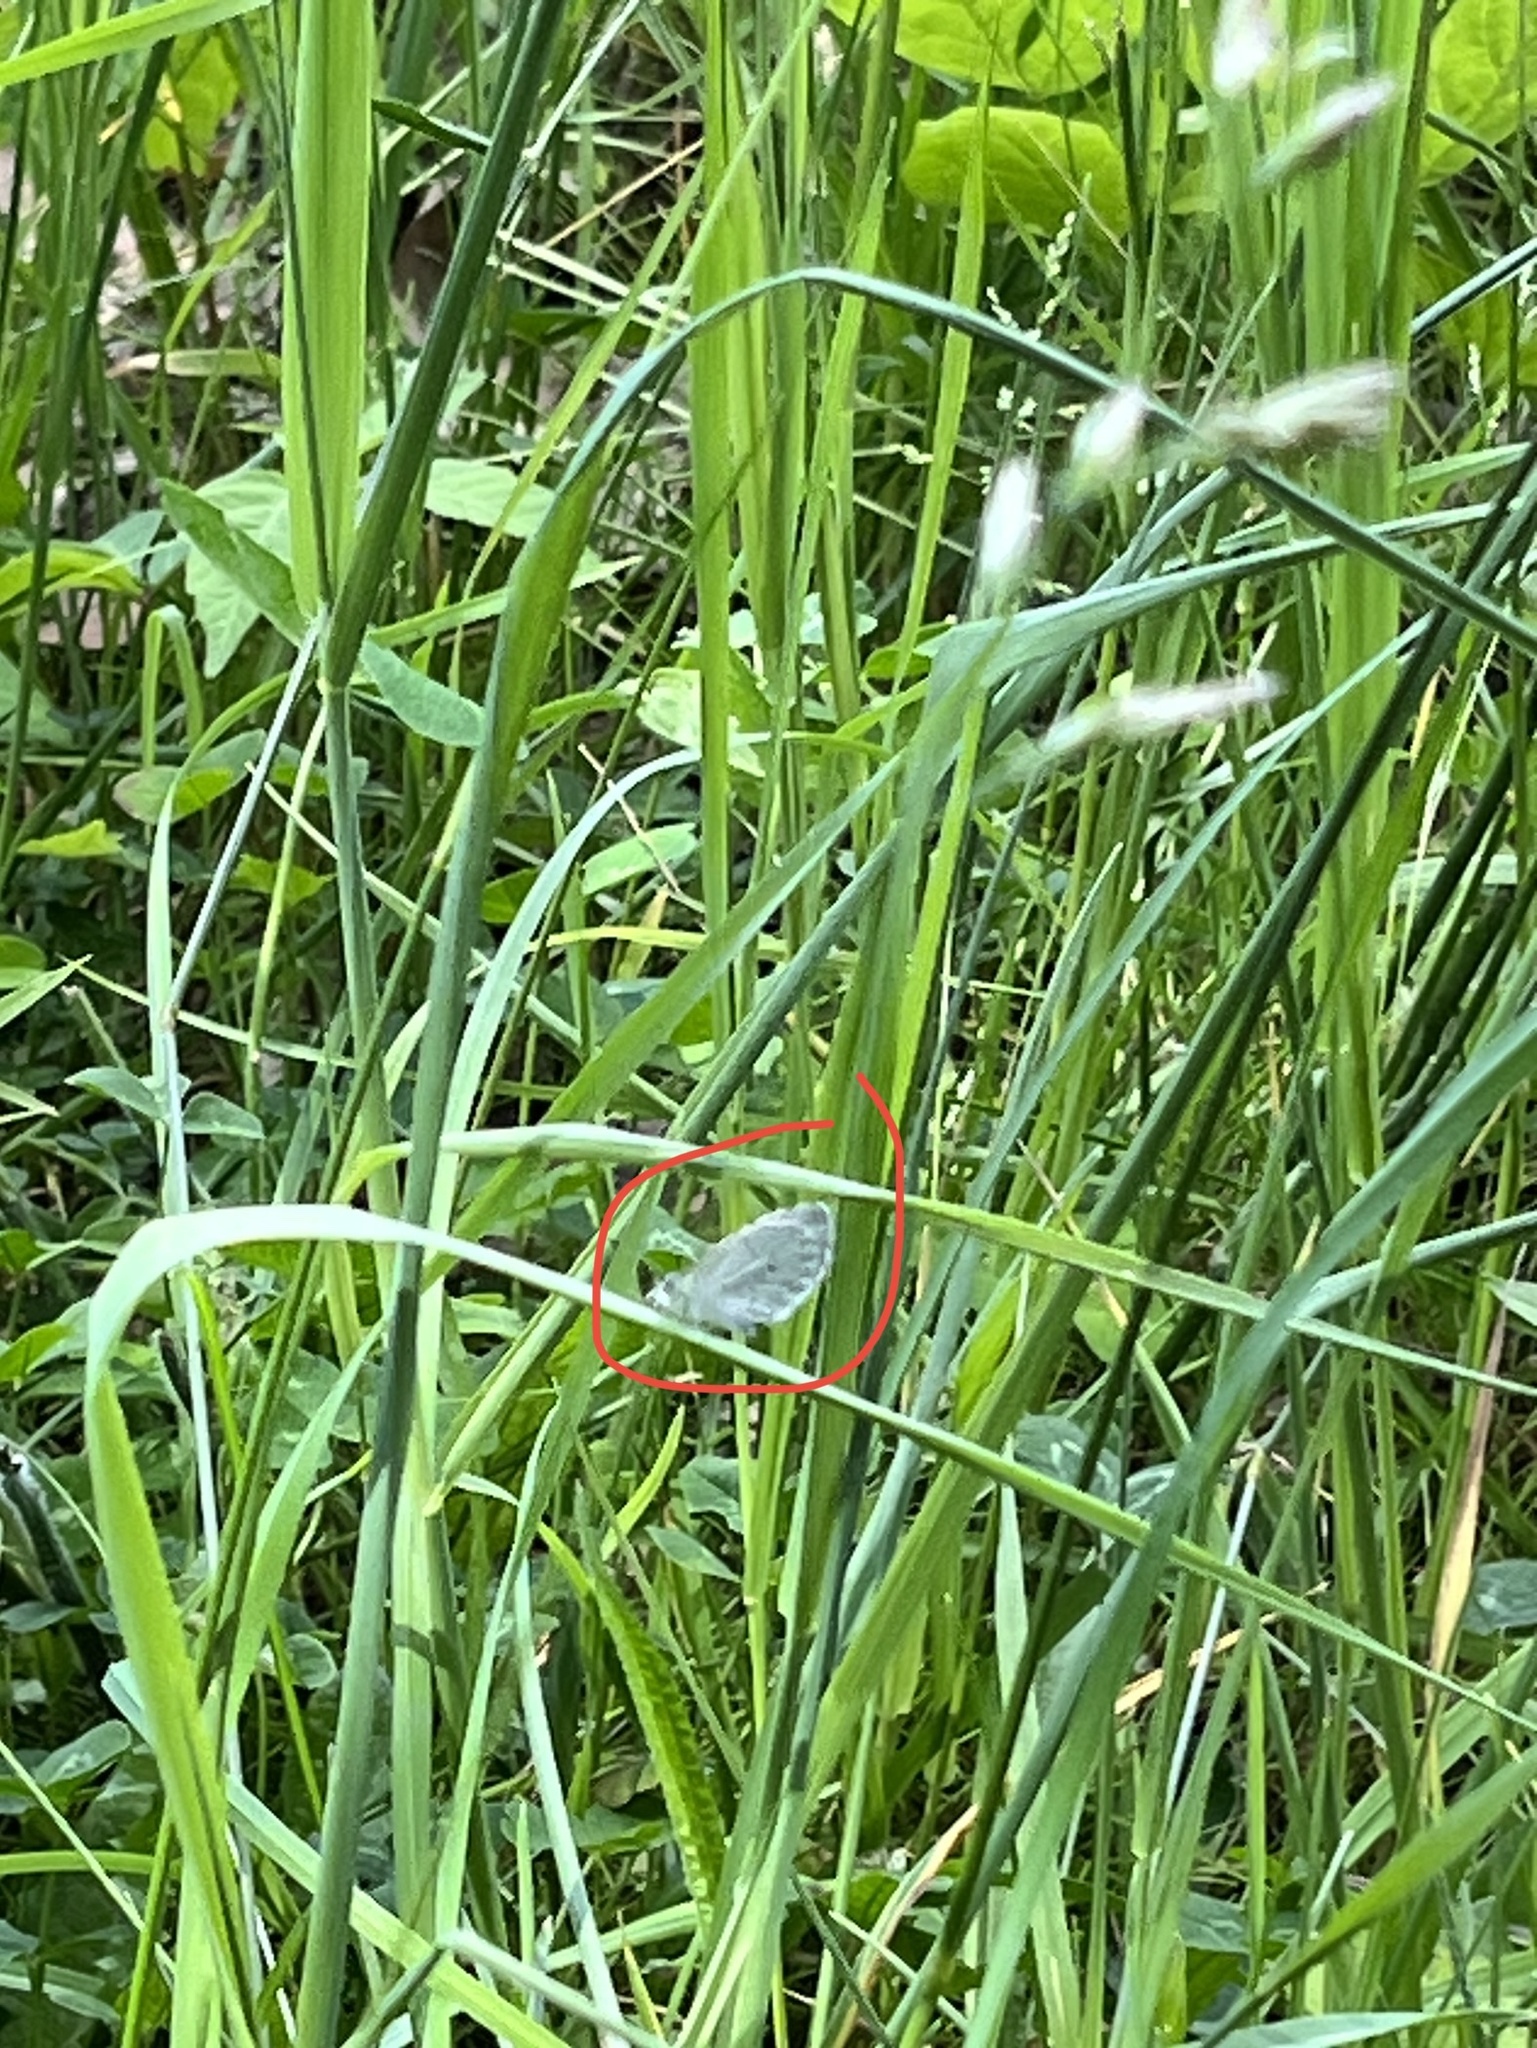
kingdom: Animalia
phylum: Arthropoda
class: Insecta
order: Lepidoptera
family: Lycaenidae
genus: Cyaniris
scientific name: Cyaniris neglecta
